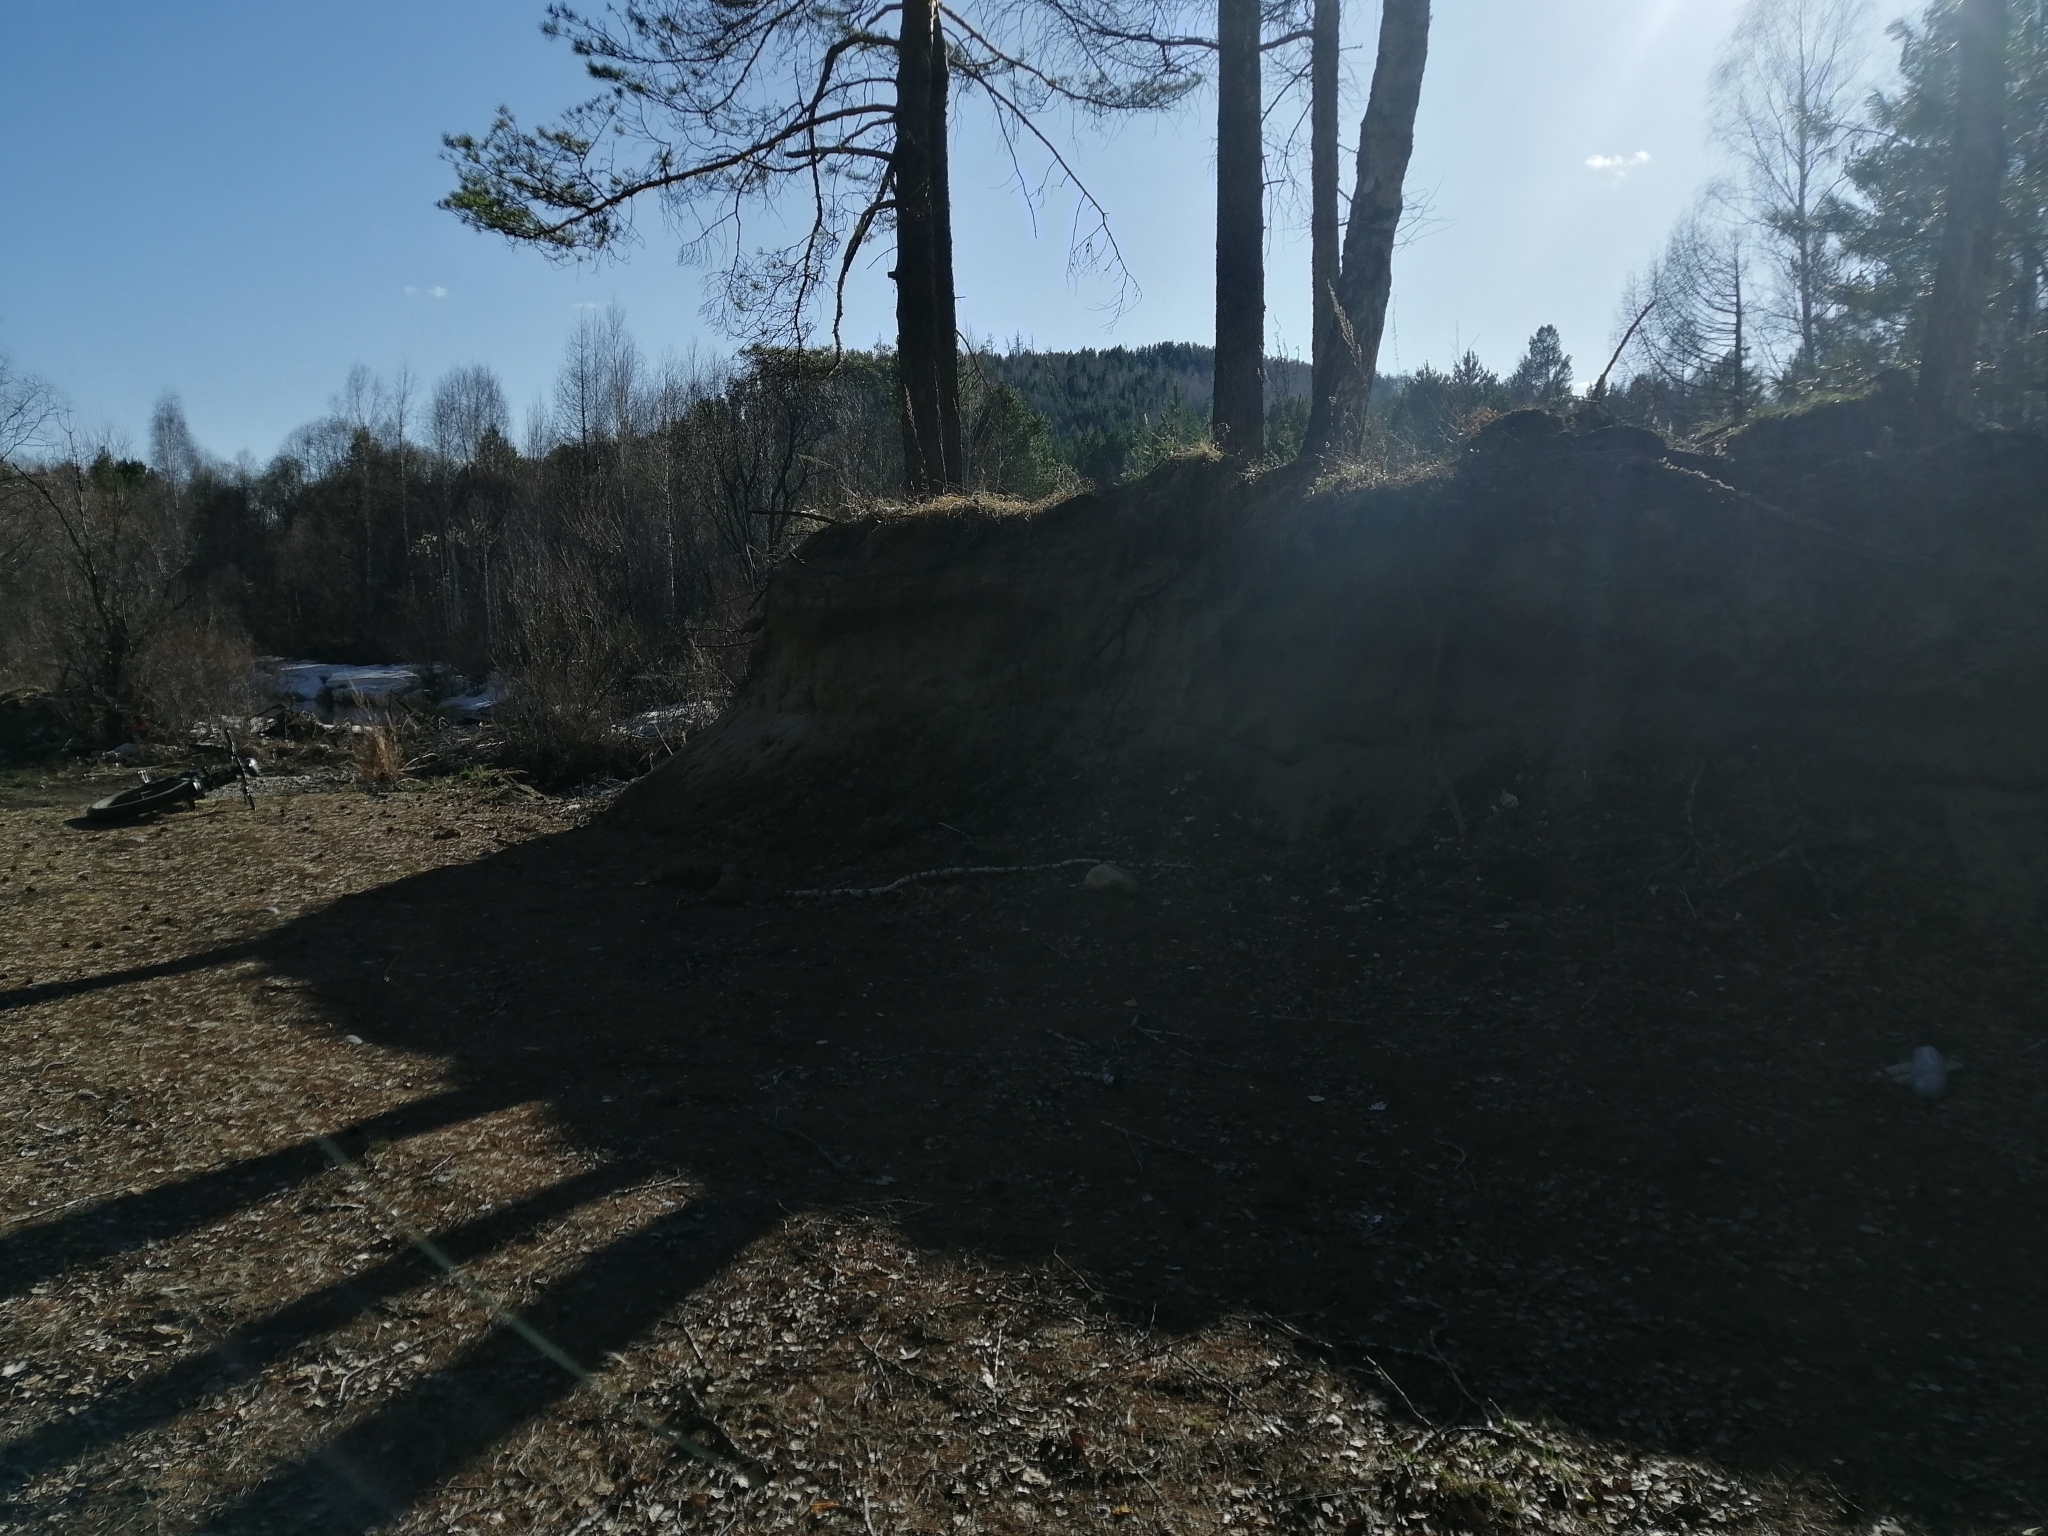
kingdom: Plantae
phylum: Tracheophyta
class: Pinopsida
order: Pinales
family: Pinaceae
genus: Pinus
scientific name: Pinus sylvestris
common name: Scots pine
